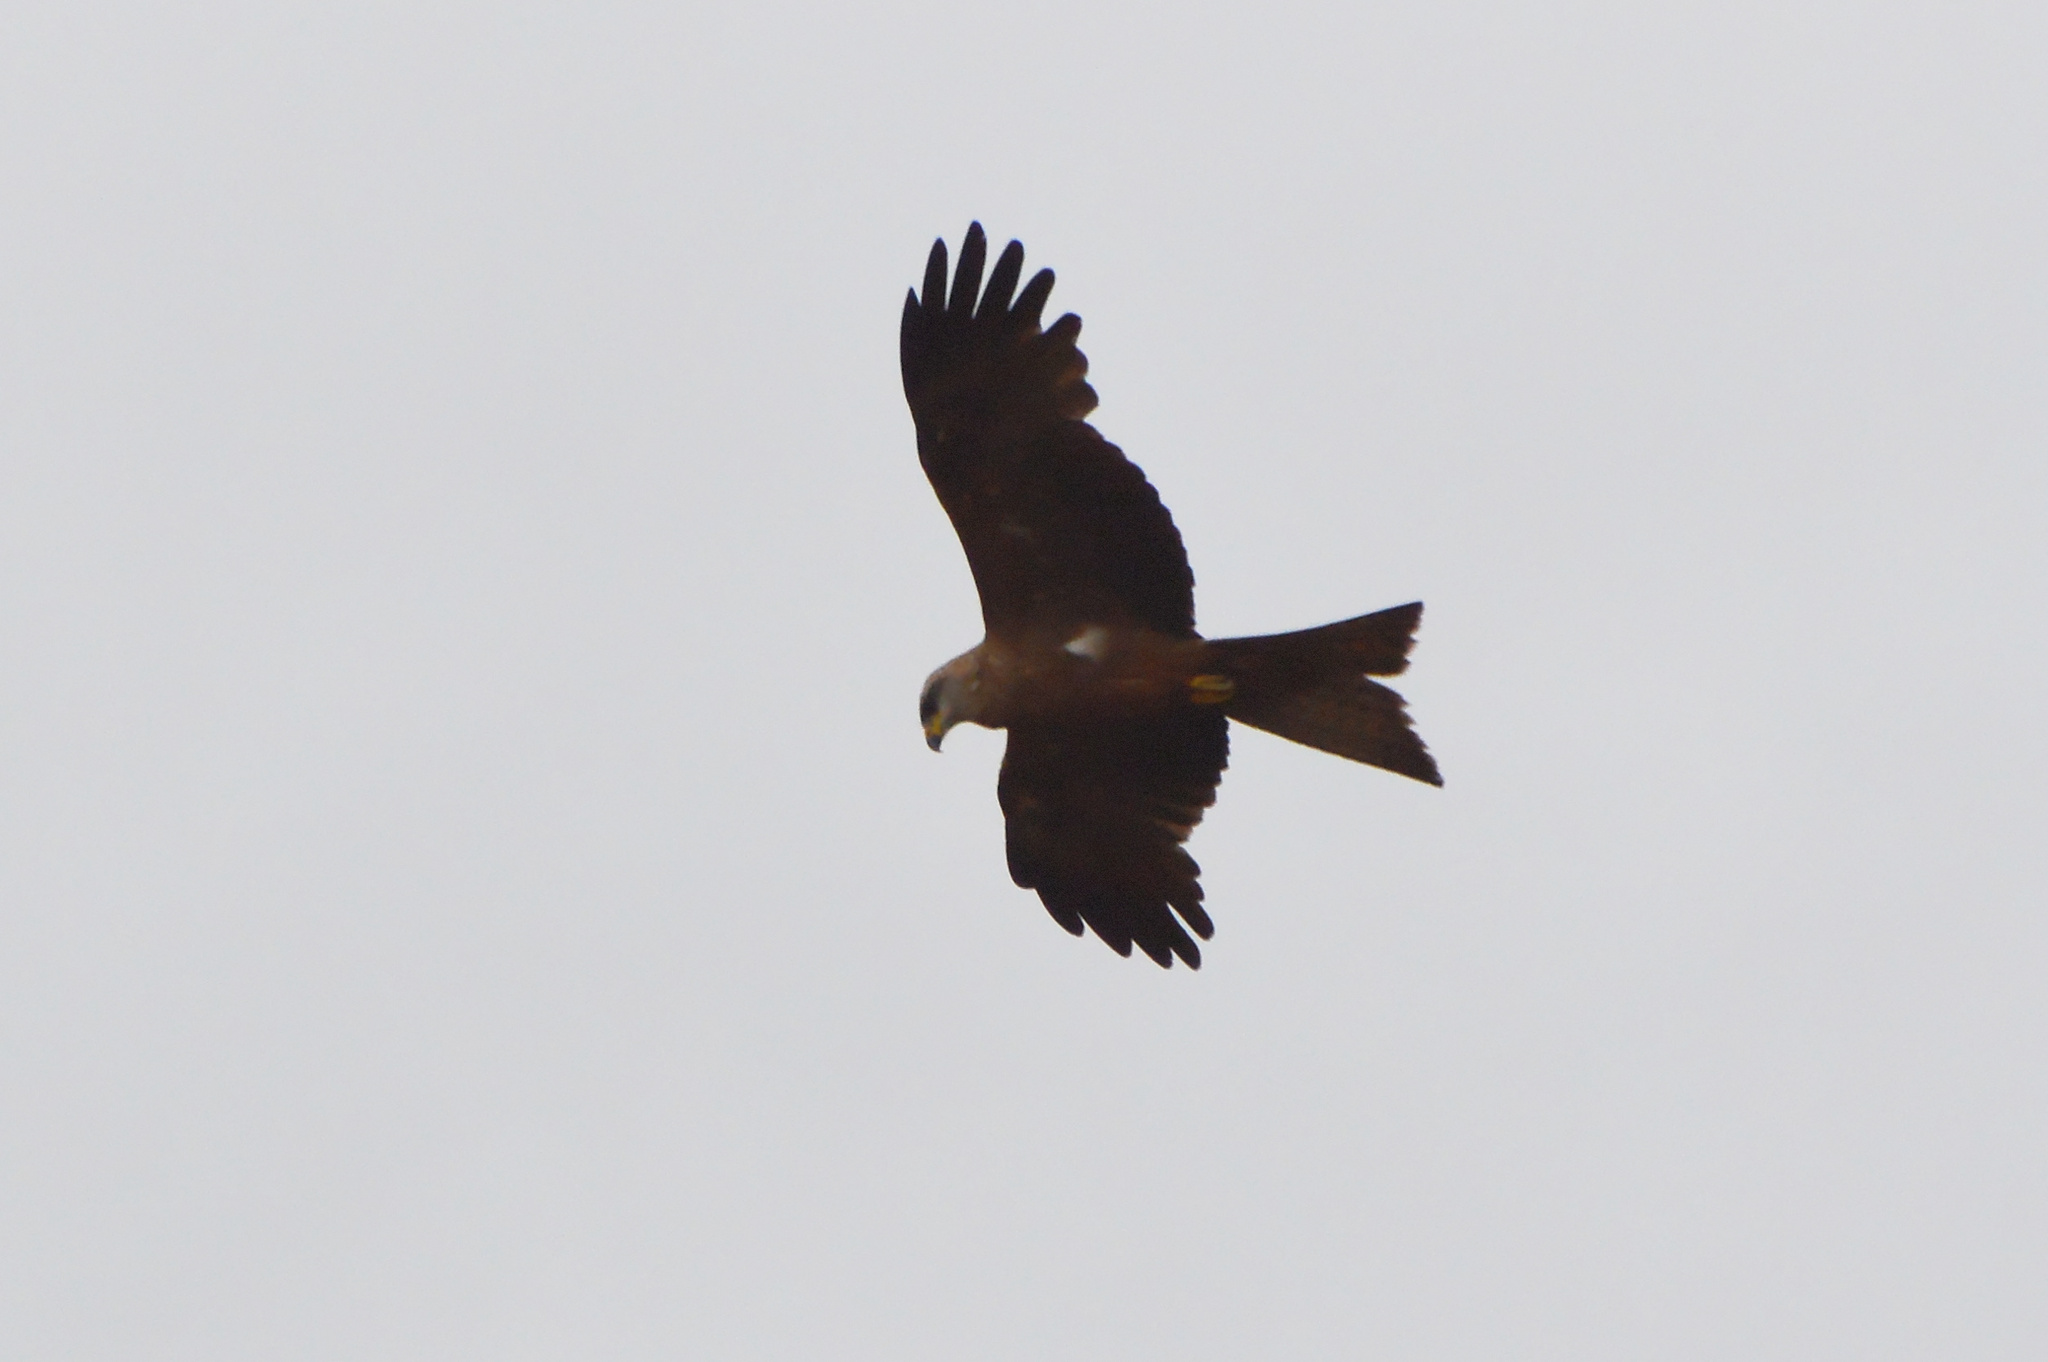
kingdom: Animalia
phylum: Chordata
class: Aves
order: Accipitriformes
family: Accipitridae
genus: Milvus
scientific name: Milvus migrans
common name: Black kite
